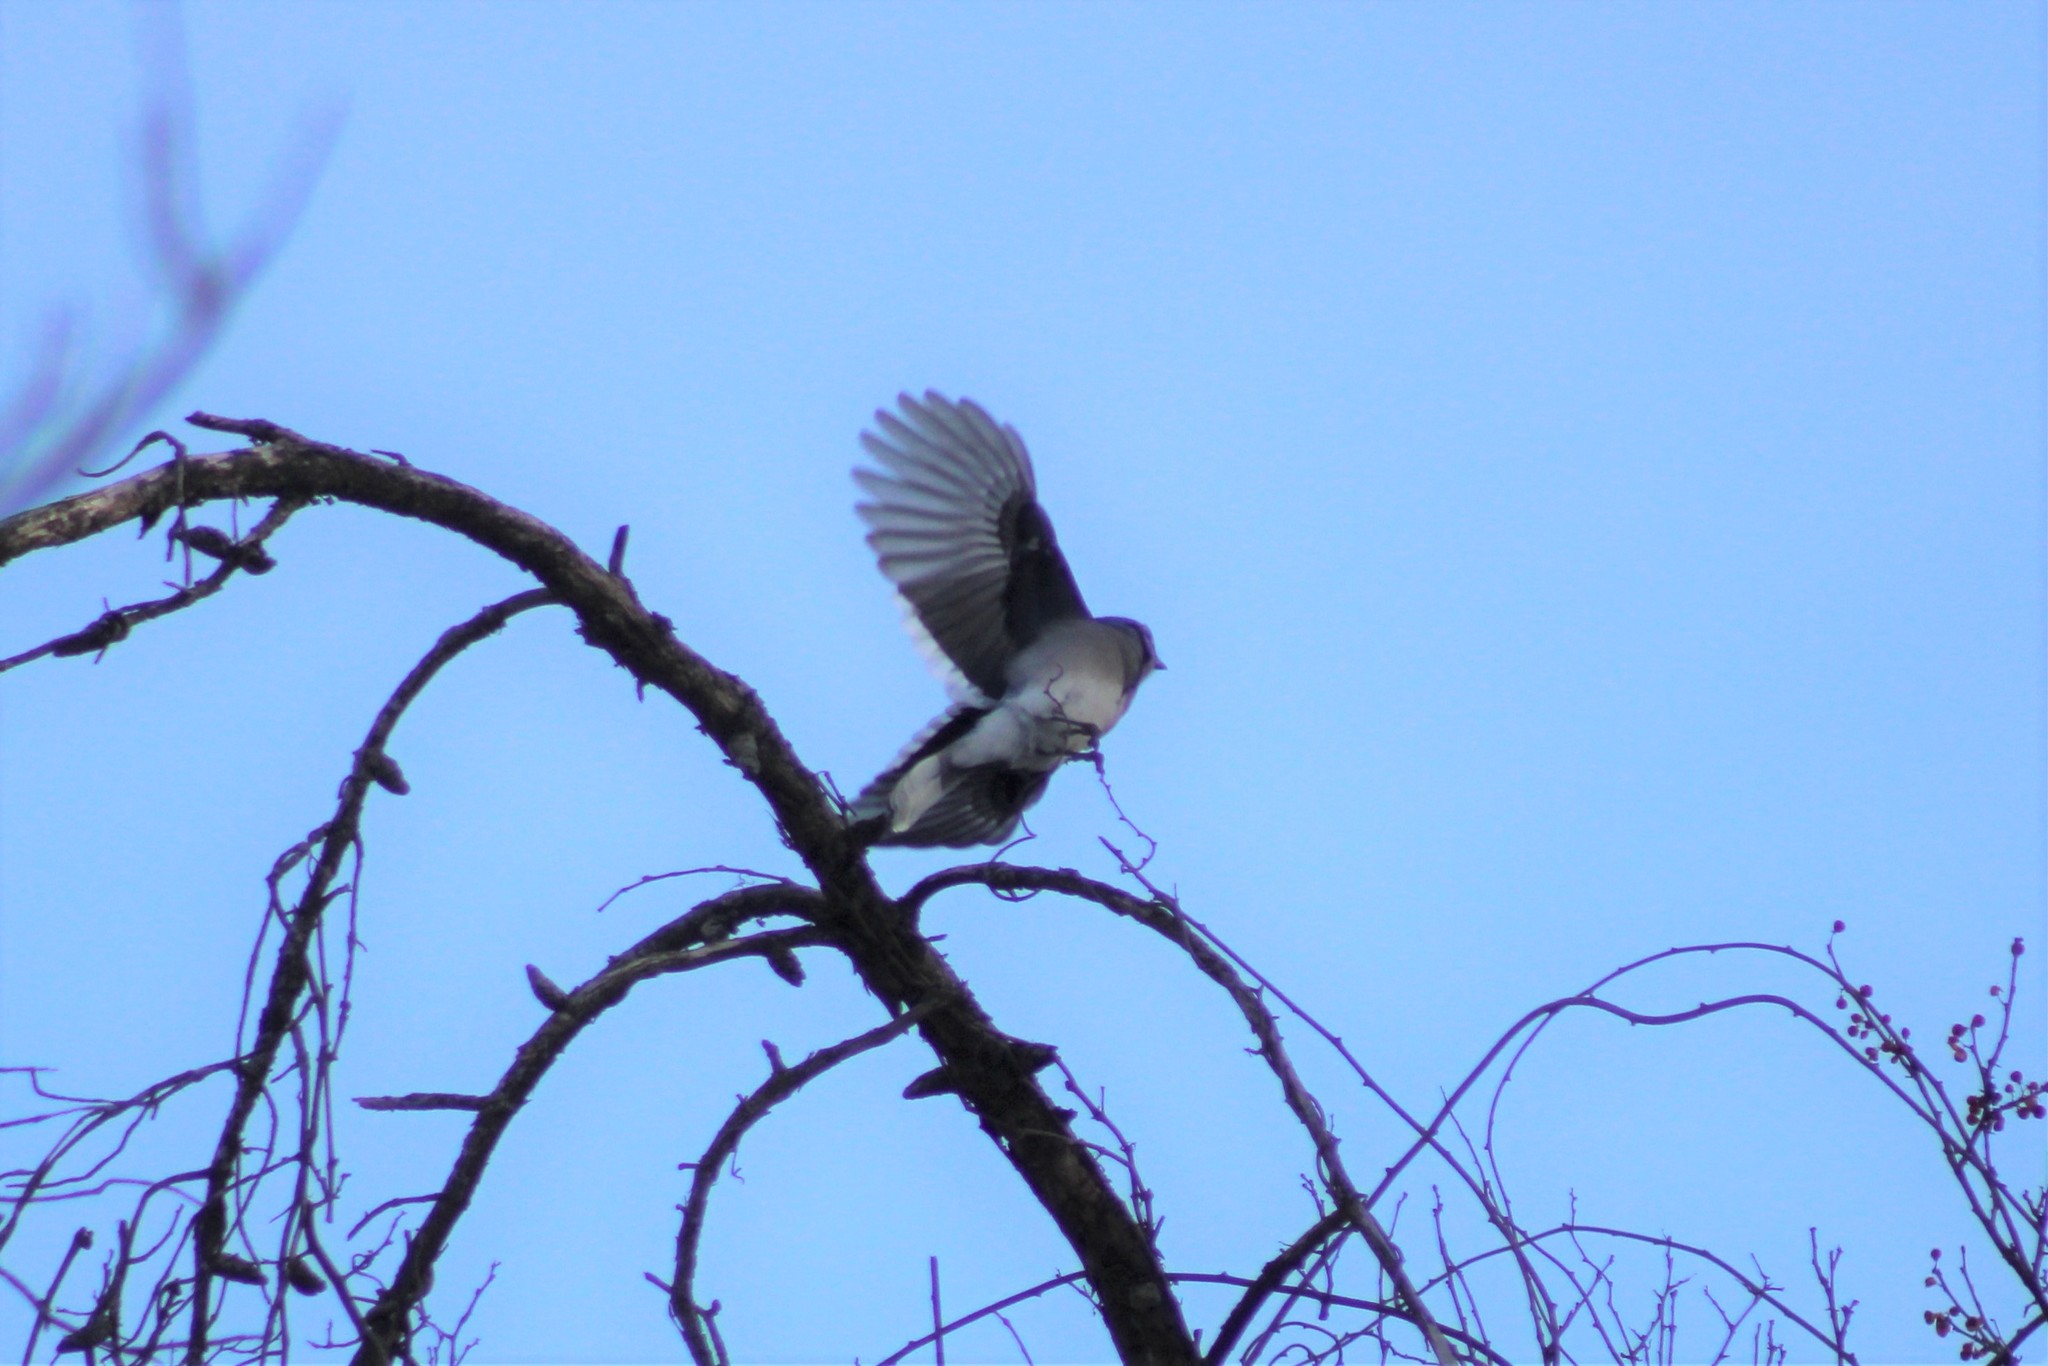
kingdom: Animalia
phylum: Chordata
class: Aves
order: Passeriformes
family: Corvidae
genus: Cyanocitta
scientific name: Cyanocitta cristata
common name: Blue jay
